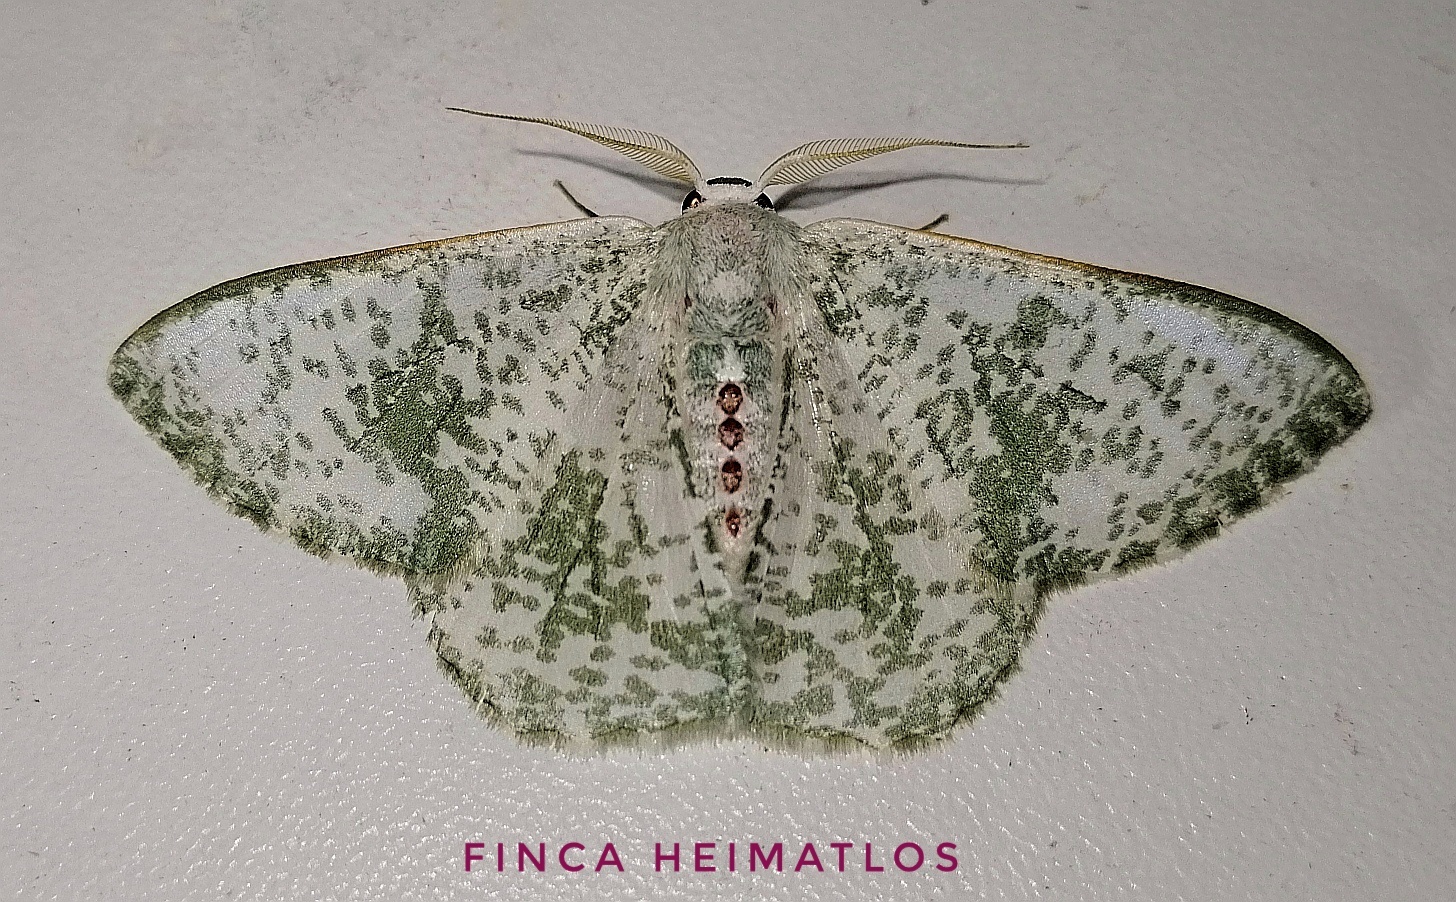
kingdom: Animalia
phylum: Arthropoda
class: Insecta
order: Lepidoptera
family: Geometridae
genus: Oospila
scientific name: Oospila sporadata
